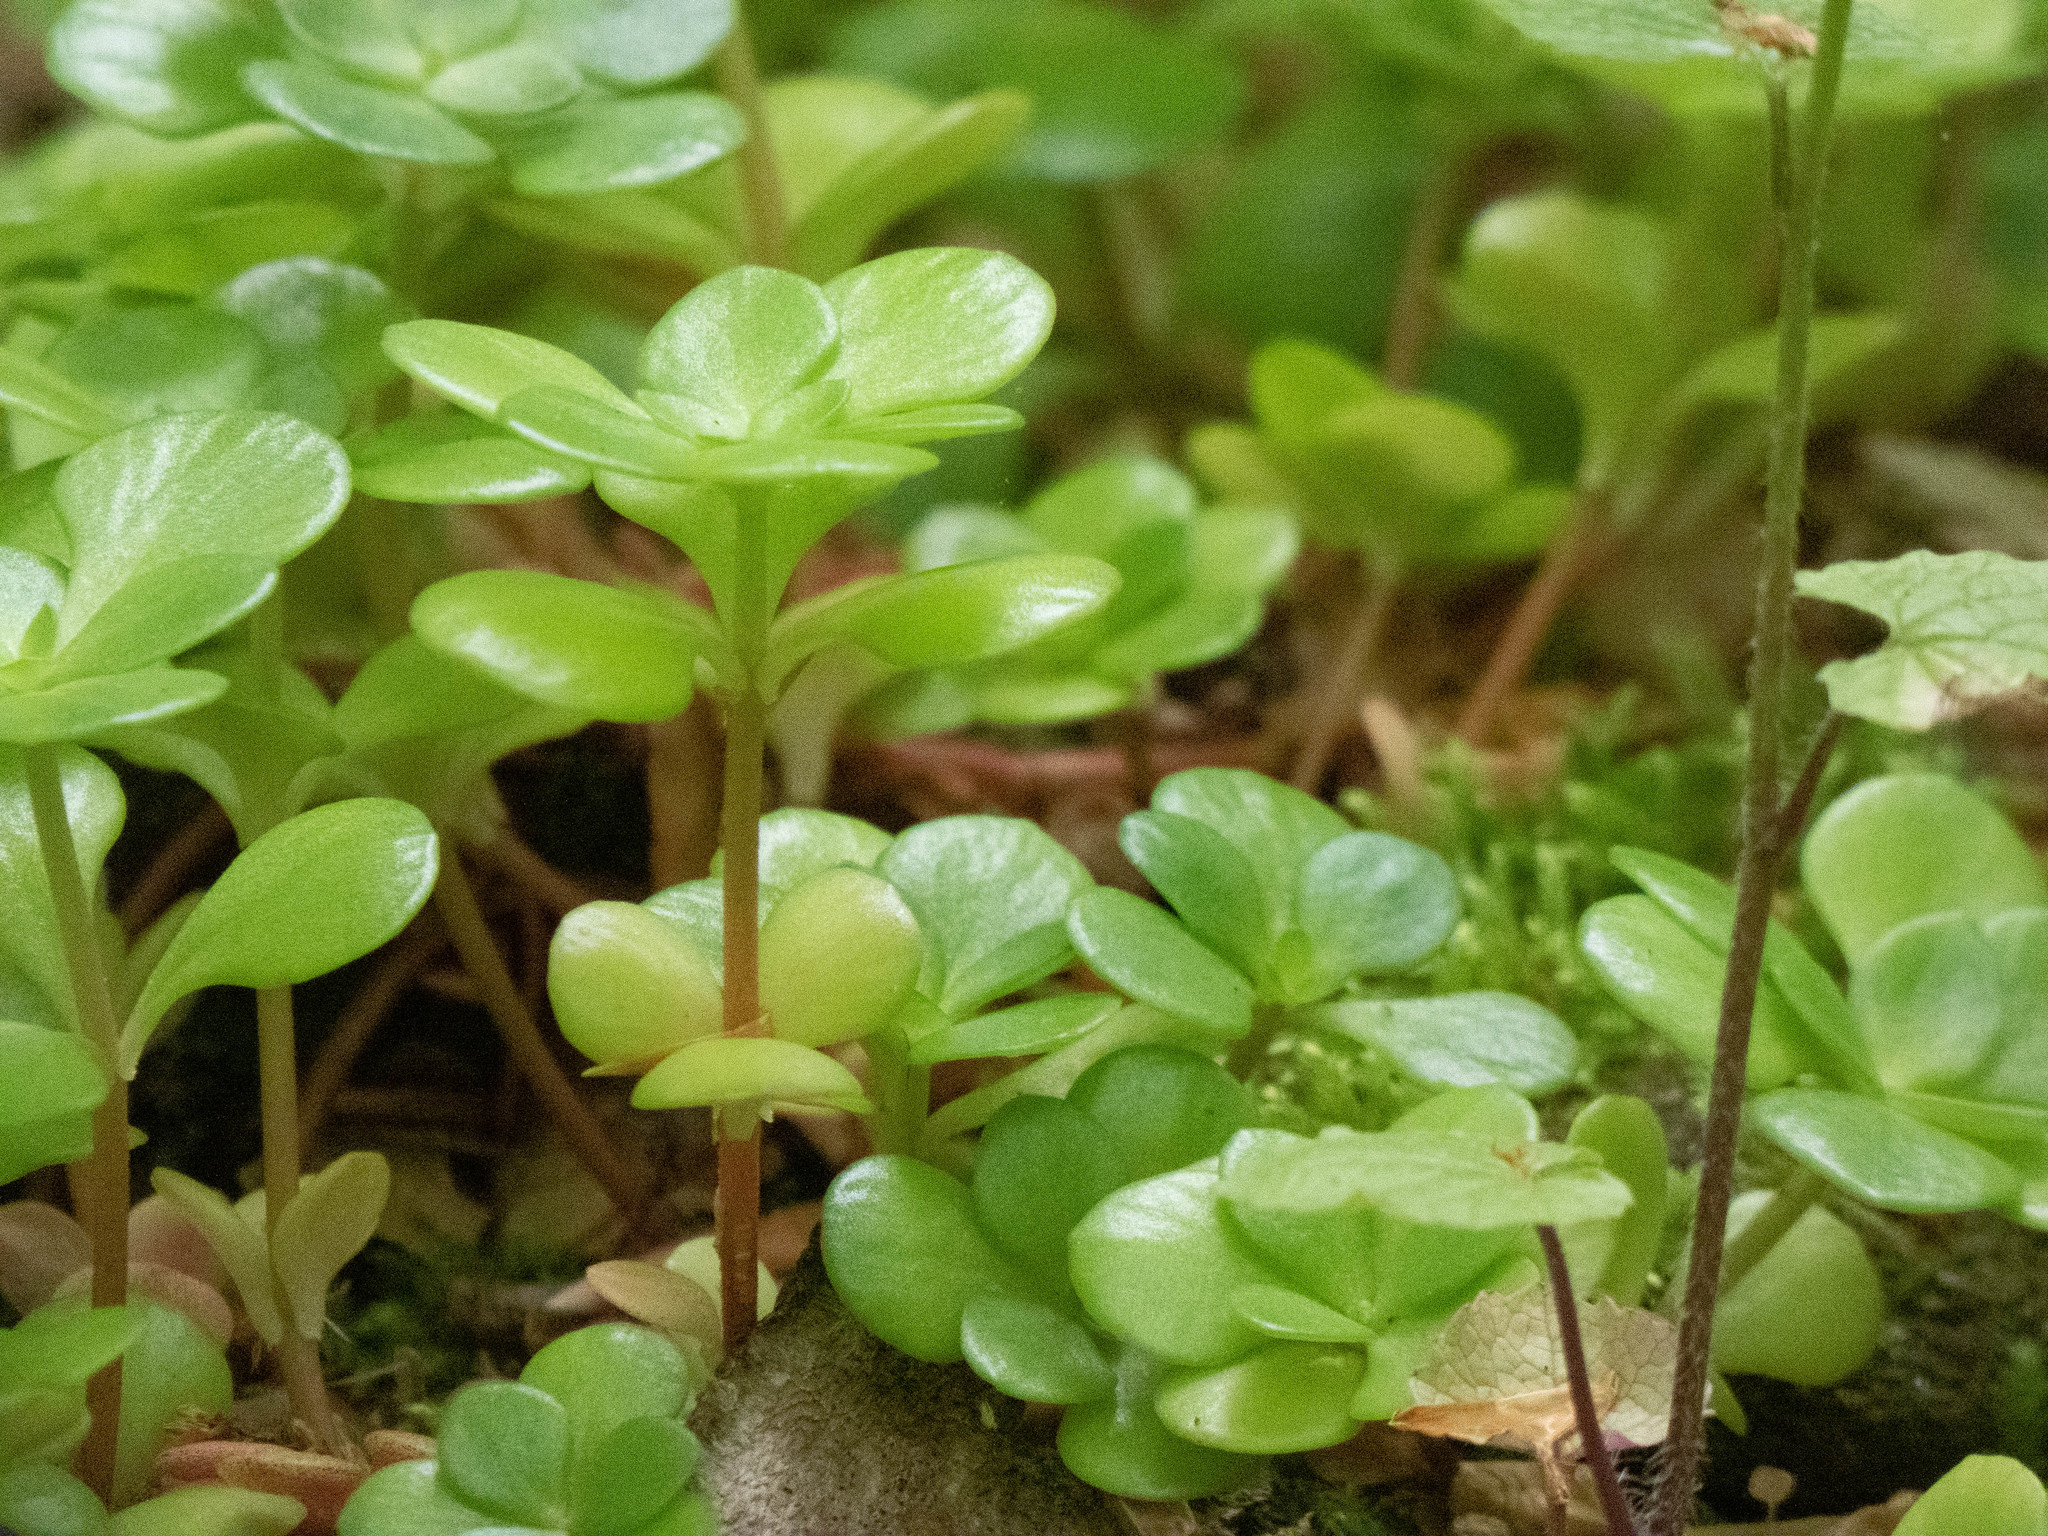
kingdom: Plantae
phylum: Tracheophyta
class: Magnoliopsida
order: Saxifragales
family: Crassulaceae
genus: Sedum
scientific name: Sedum ternatum
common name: Wild stonecrop
